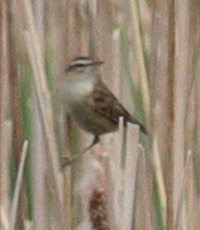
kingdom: Animalia
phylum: Chordata
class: Aves
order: Passeriformes
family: Acrocephalidae
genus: Acrocephalus
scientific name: Acrocephalus schoenobaenus
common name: Sedge warbler
